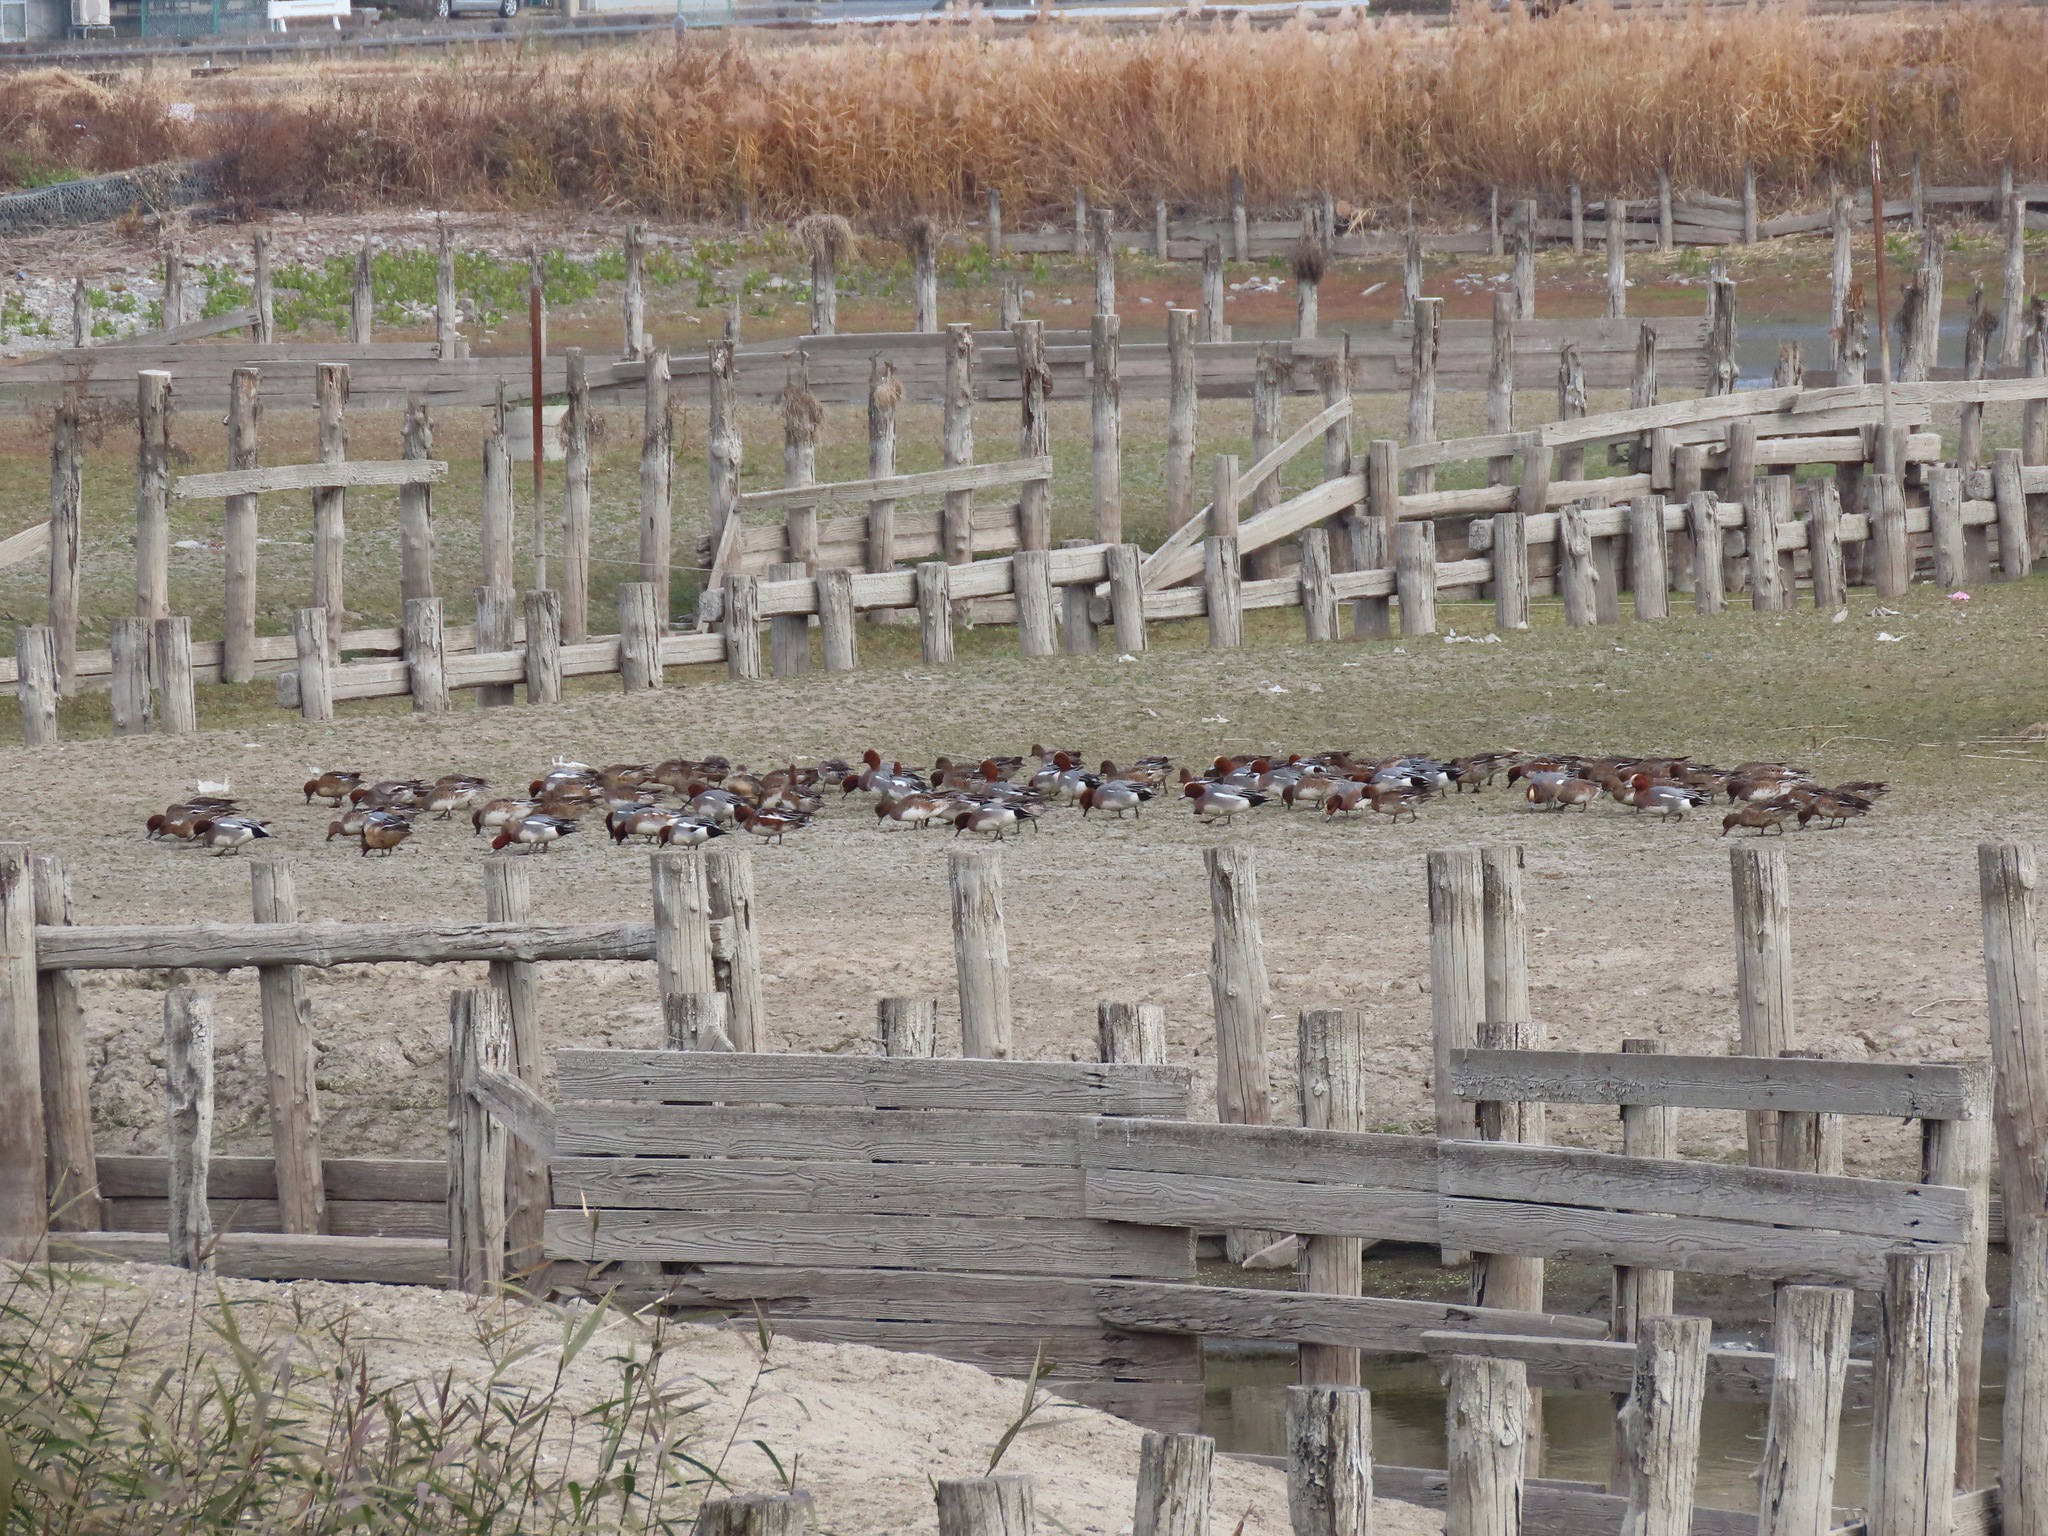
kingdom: Animalia
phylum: Chordata
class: Aves
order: Anseriformes
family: Anatidae
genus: Mareca
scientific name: Mareca penelope
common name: Eurasian wigeon
